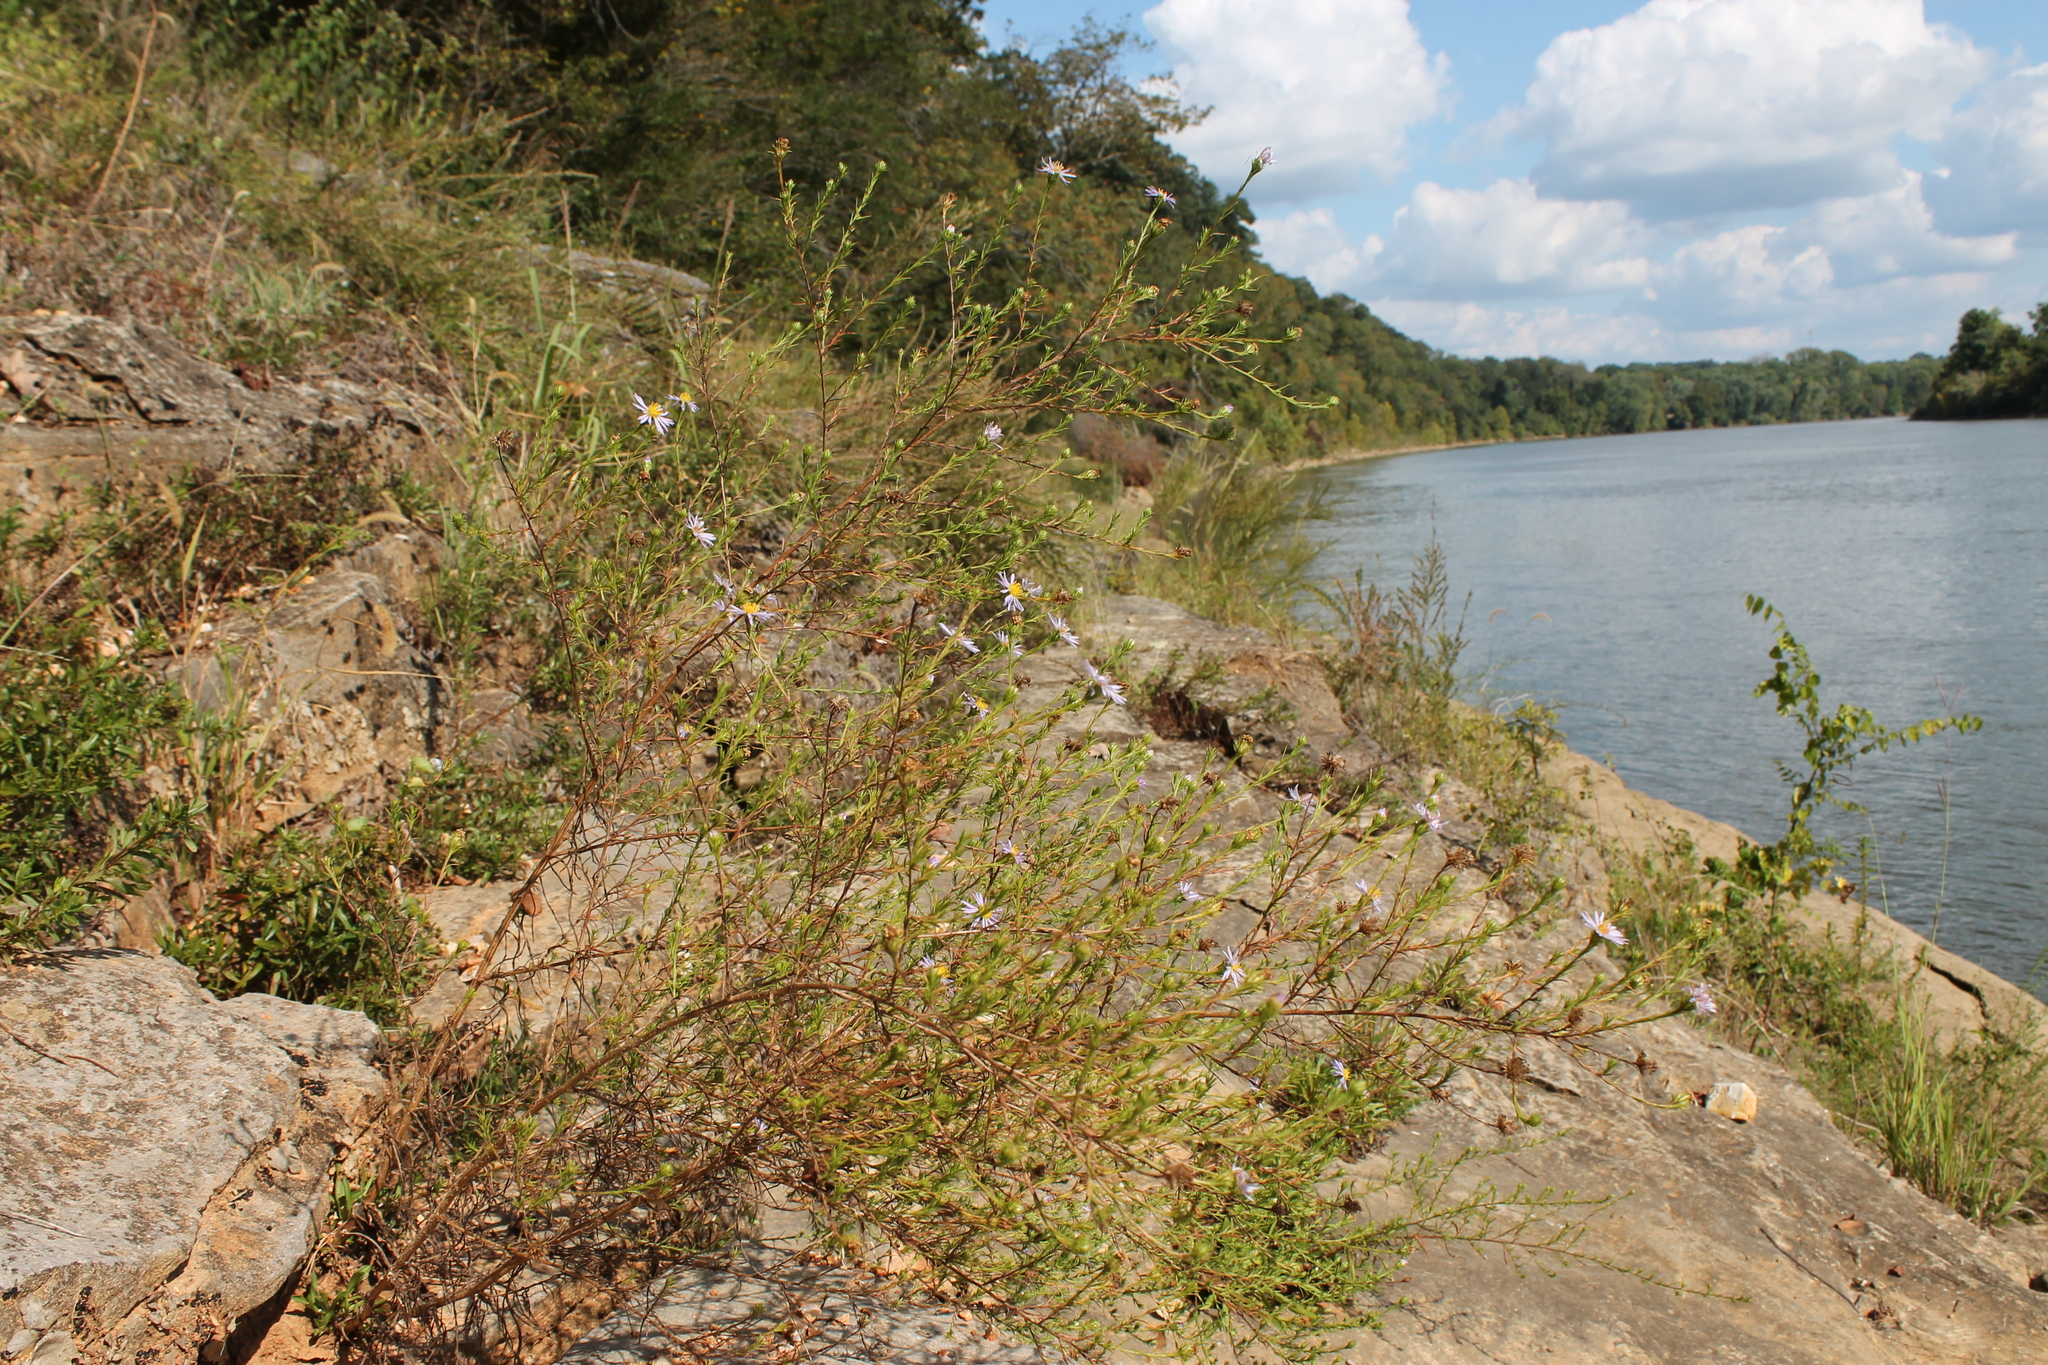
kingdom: Plantae
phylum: Tracheophyta
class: Magnoliopsida
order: Asterales
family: Asteraceae
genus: Symphyotrichum
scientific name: Symphyotrichum kentuckiense
